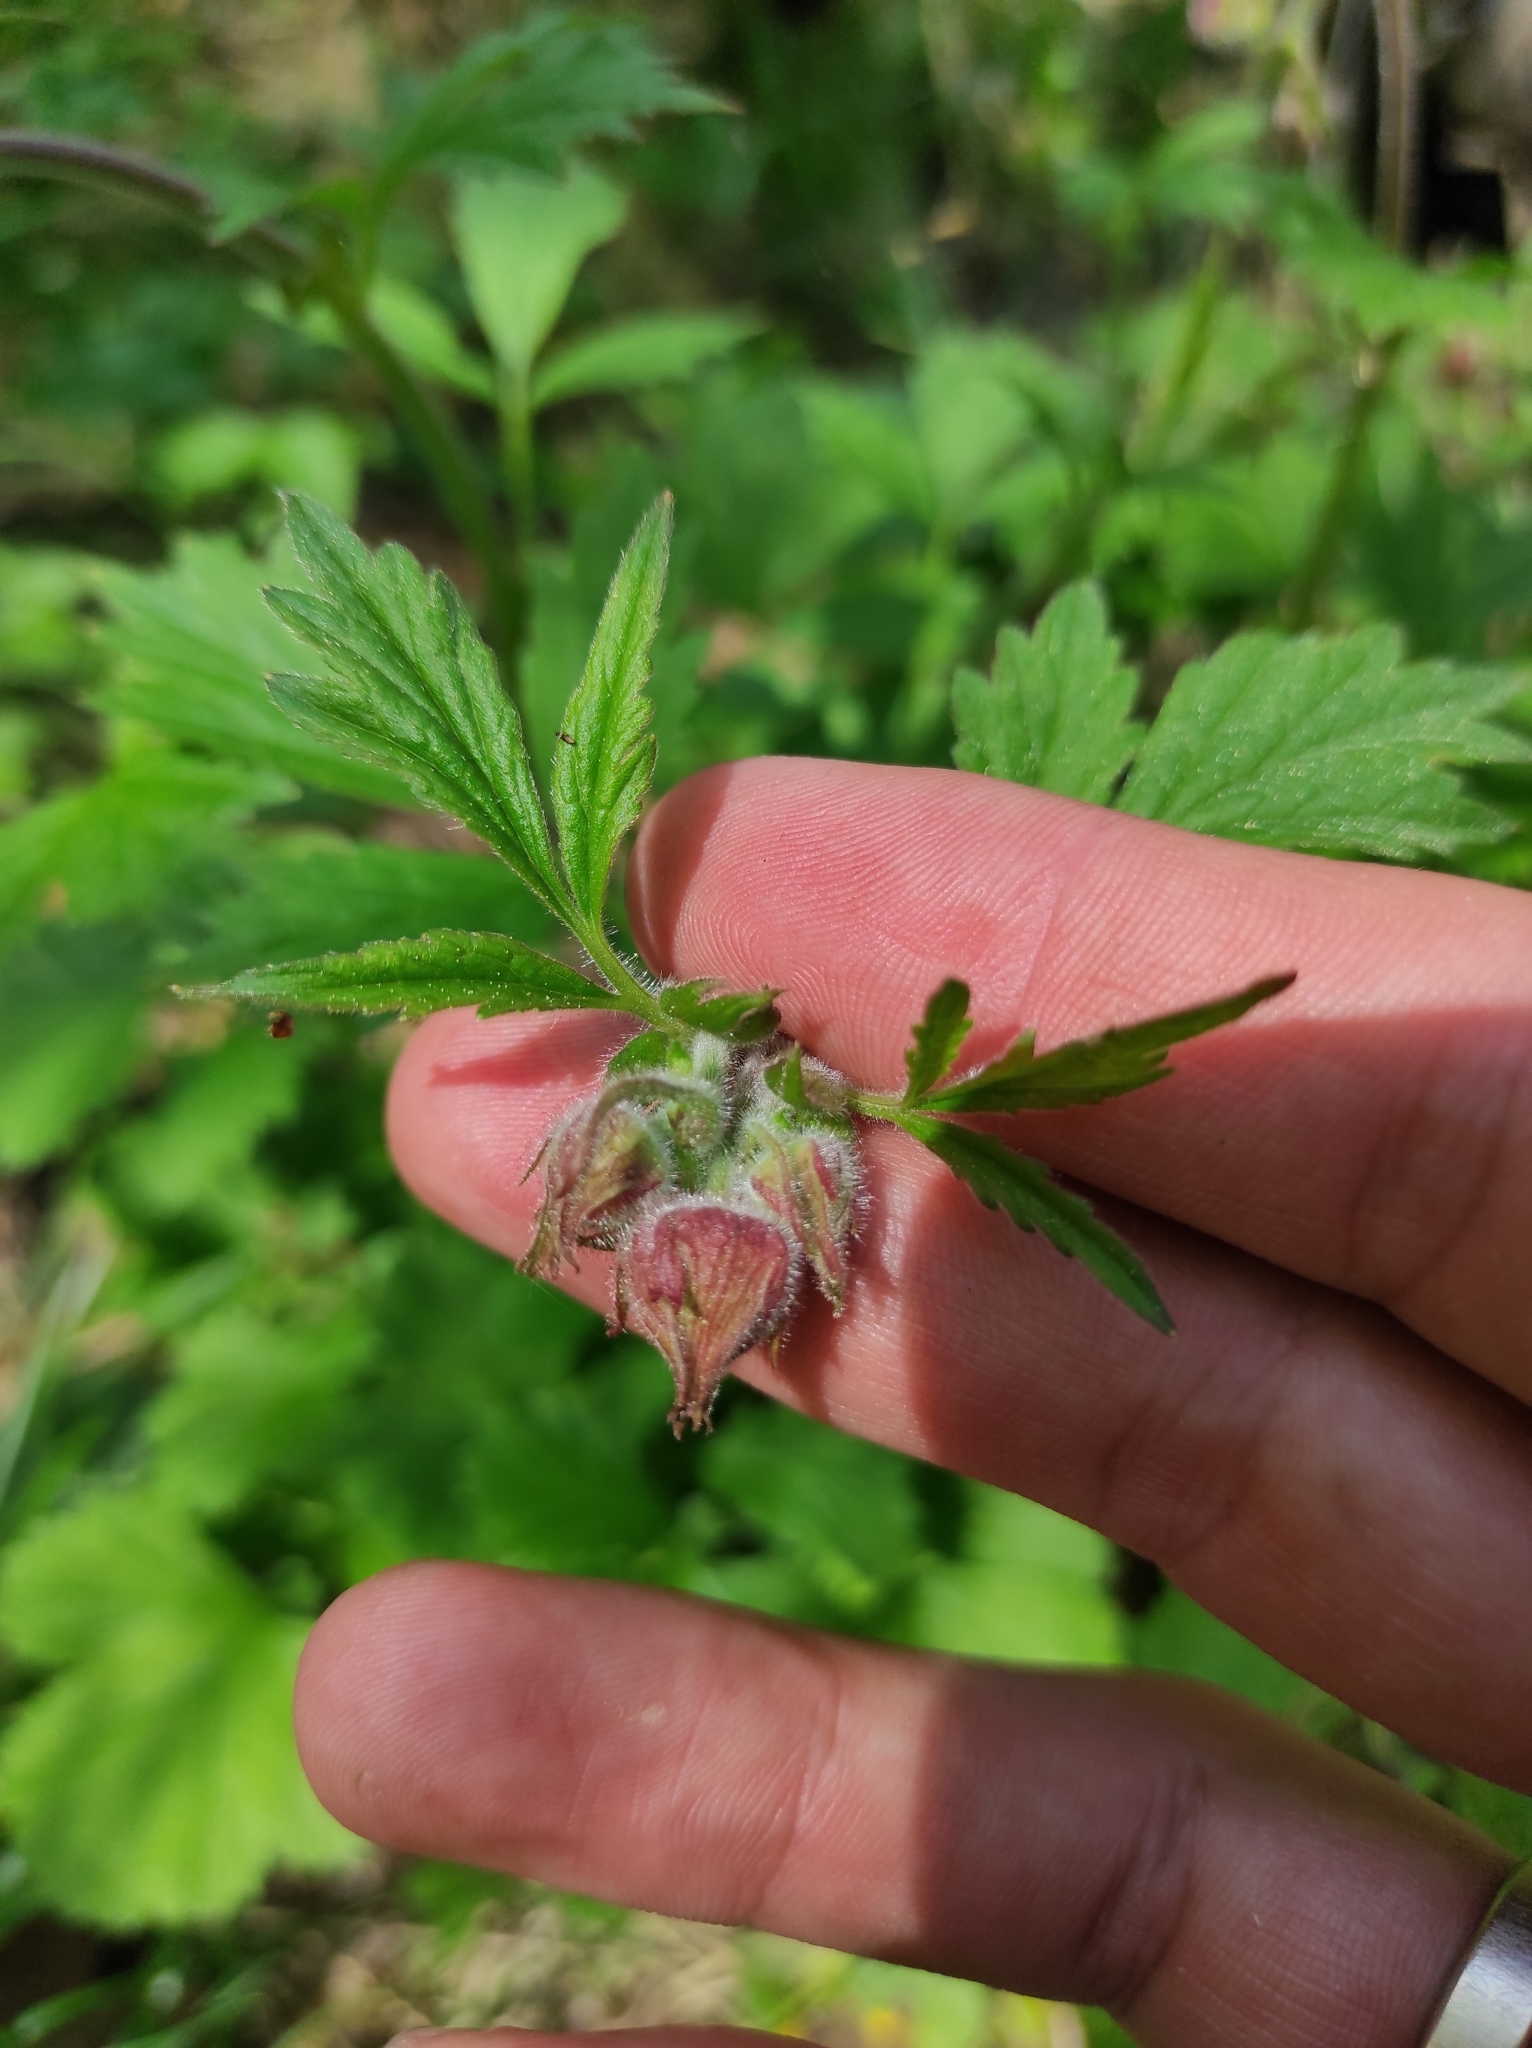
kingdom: Plantae
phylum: Tracheophyta
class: Magnoliopsida
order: Rosales
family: Rosaceae
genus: Geum
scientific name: Geum rivale
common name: Water avens
